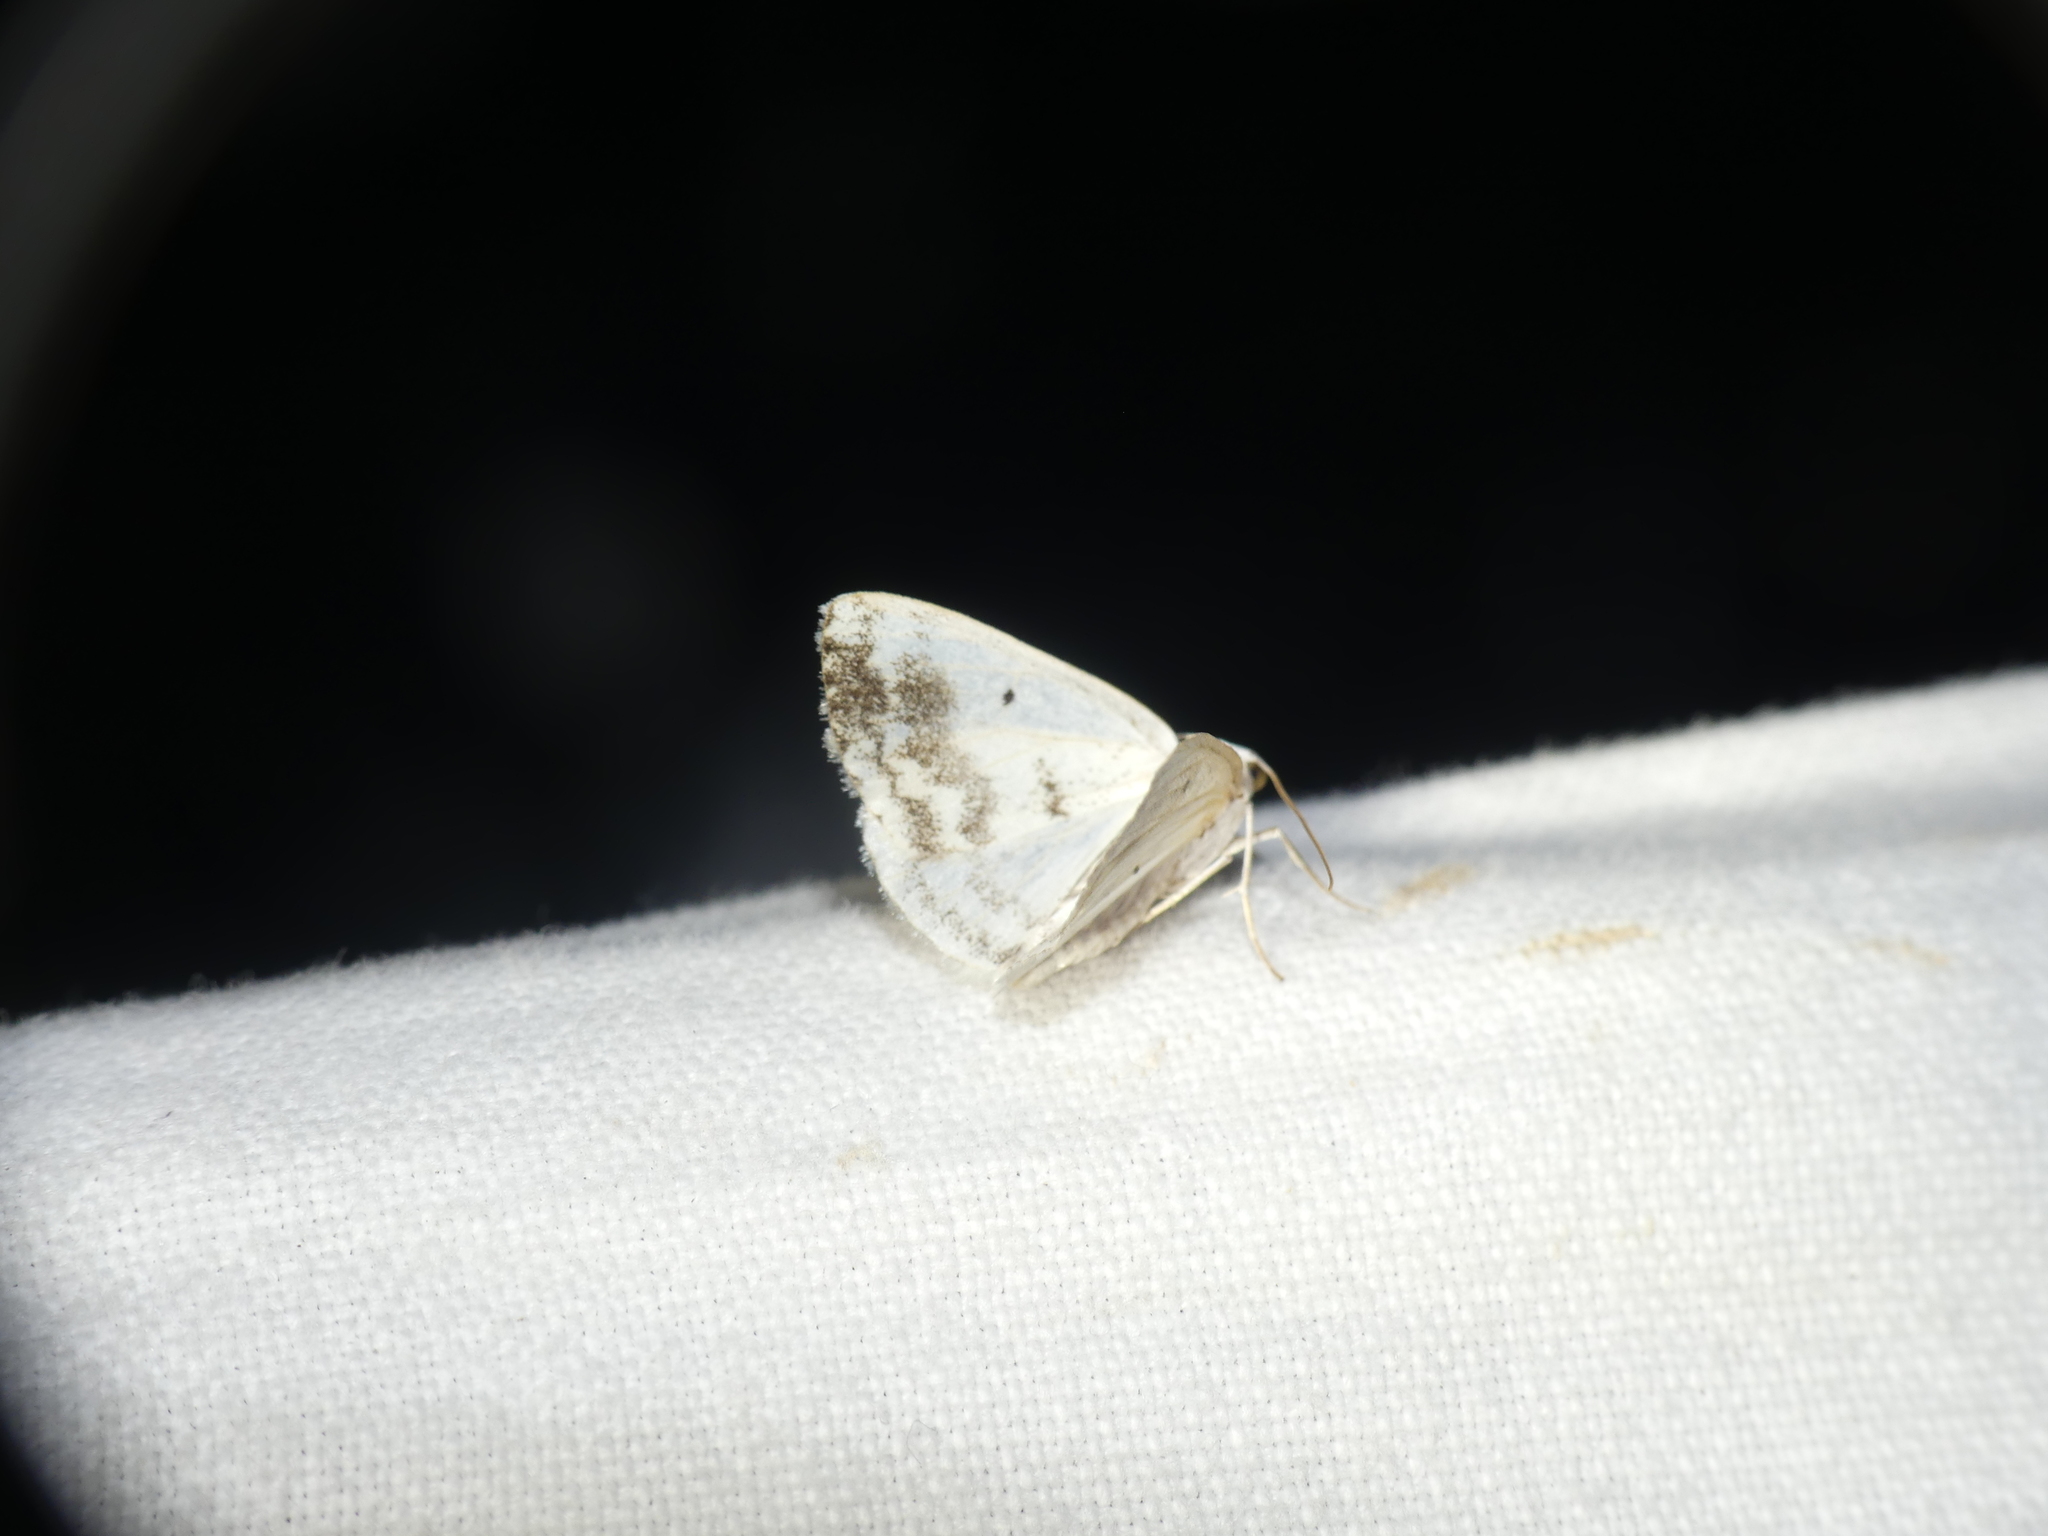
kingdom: Animalia
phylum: Arthropoda
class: Insecta
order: Lepidoptera
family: Geometridae
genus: Lomographa
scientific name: Lomographa temerata
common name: Clouded silver
